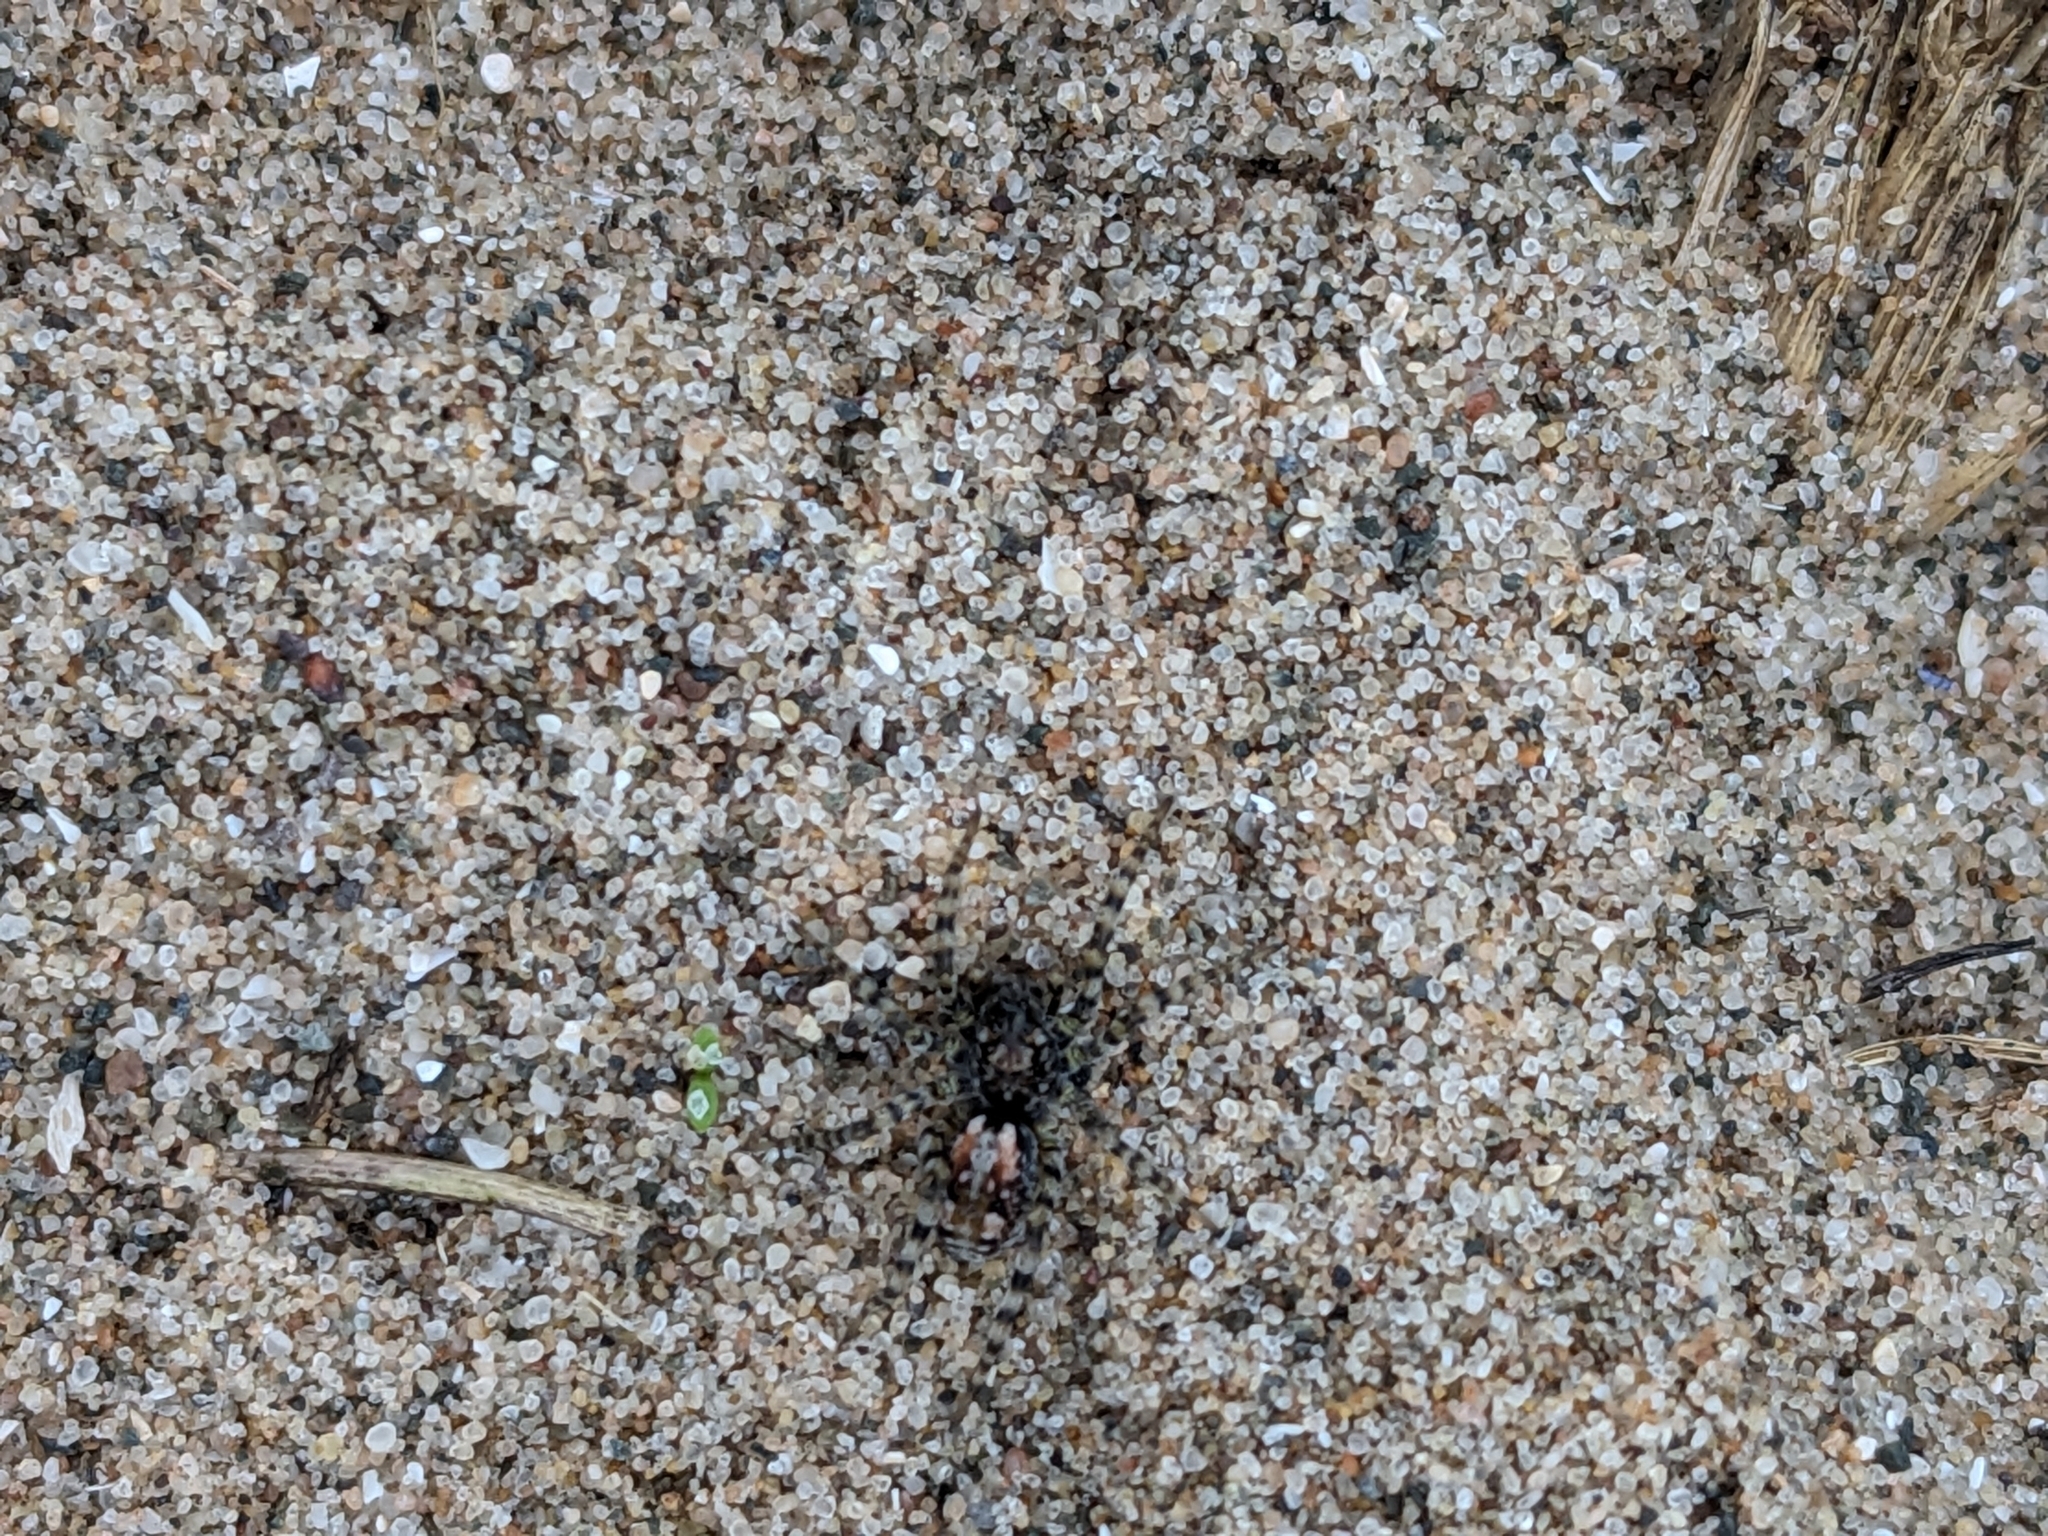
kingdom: Animalia
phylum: Arthropoda
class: Arachnida
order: Araneae
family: Lycosidae
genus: Arctosa
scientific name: Arctosa perita
